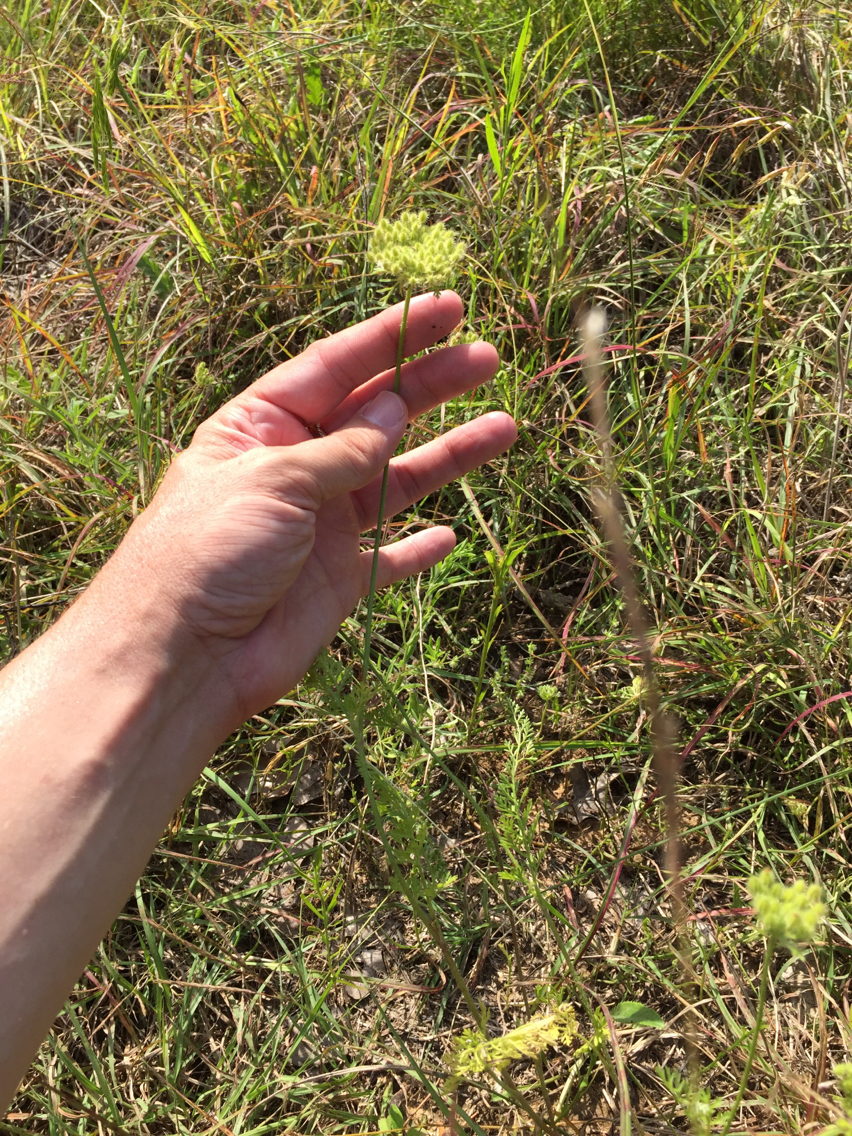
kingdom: Plantae
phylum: Tracheophyta
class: Magnoliopsida
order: Apiales
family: Apiaceae
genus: Daucus
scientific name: Daucus pusillus
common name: Southwest wild carrot
